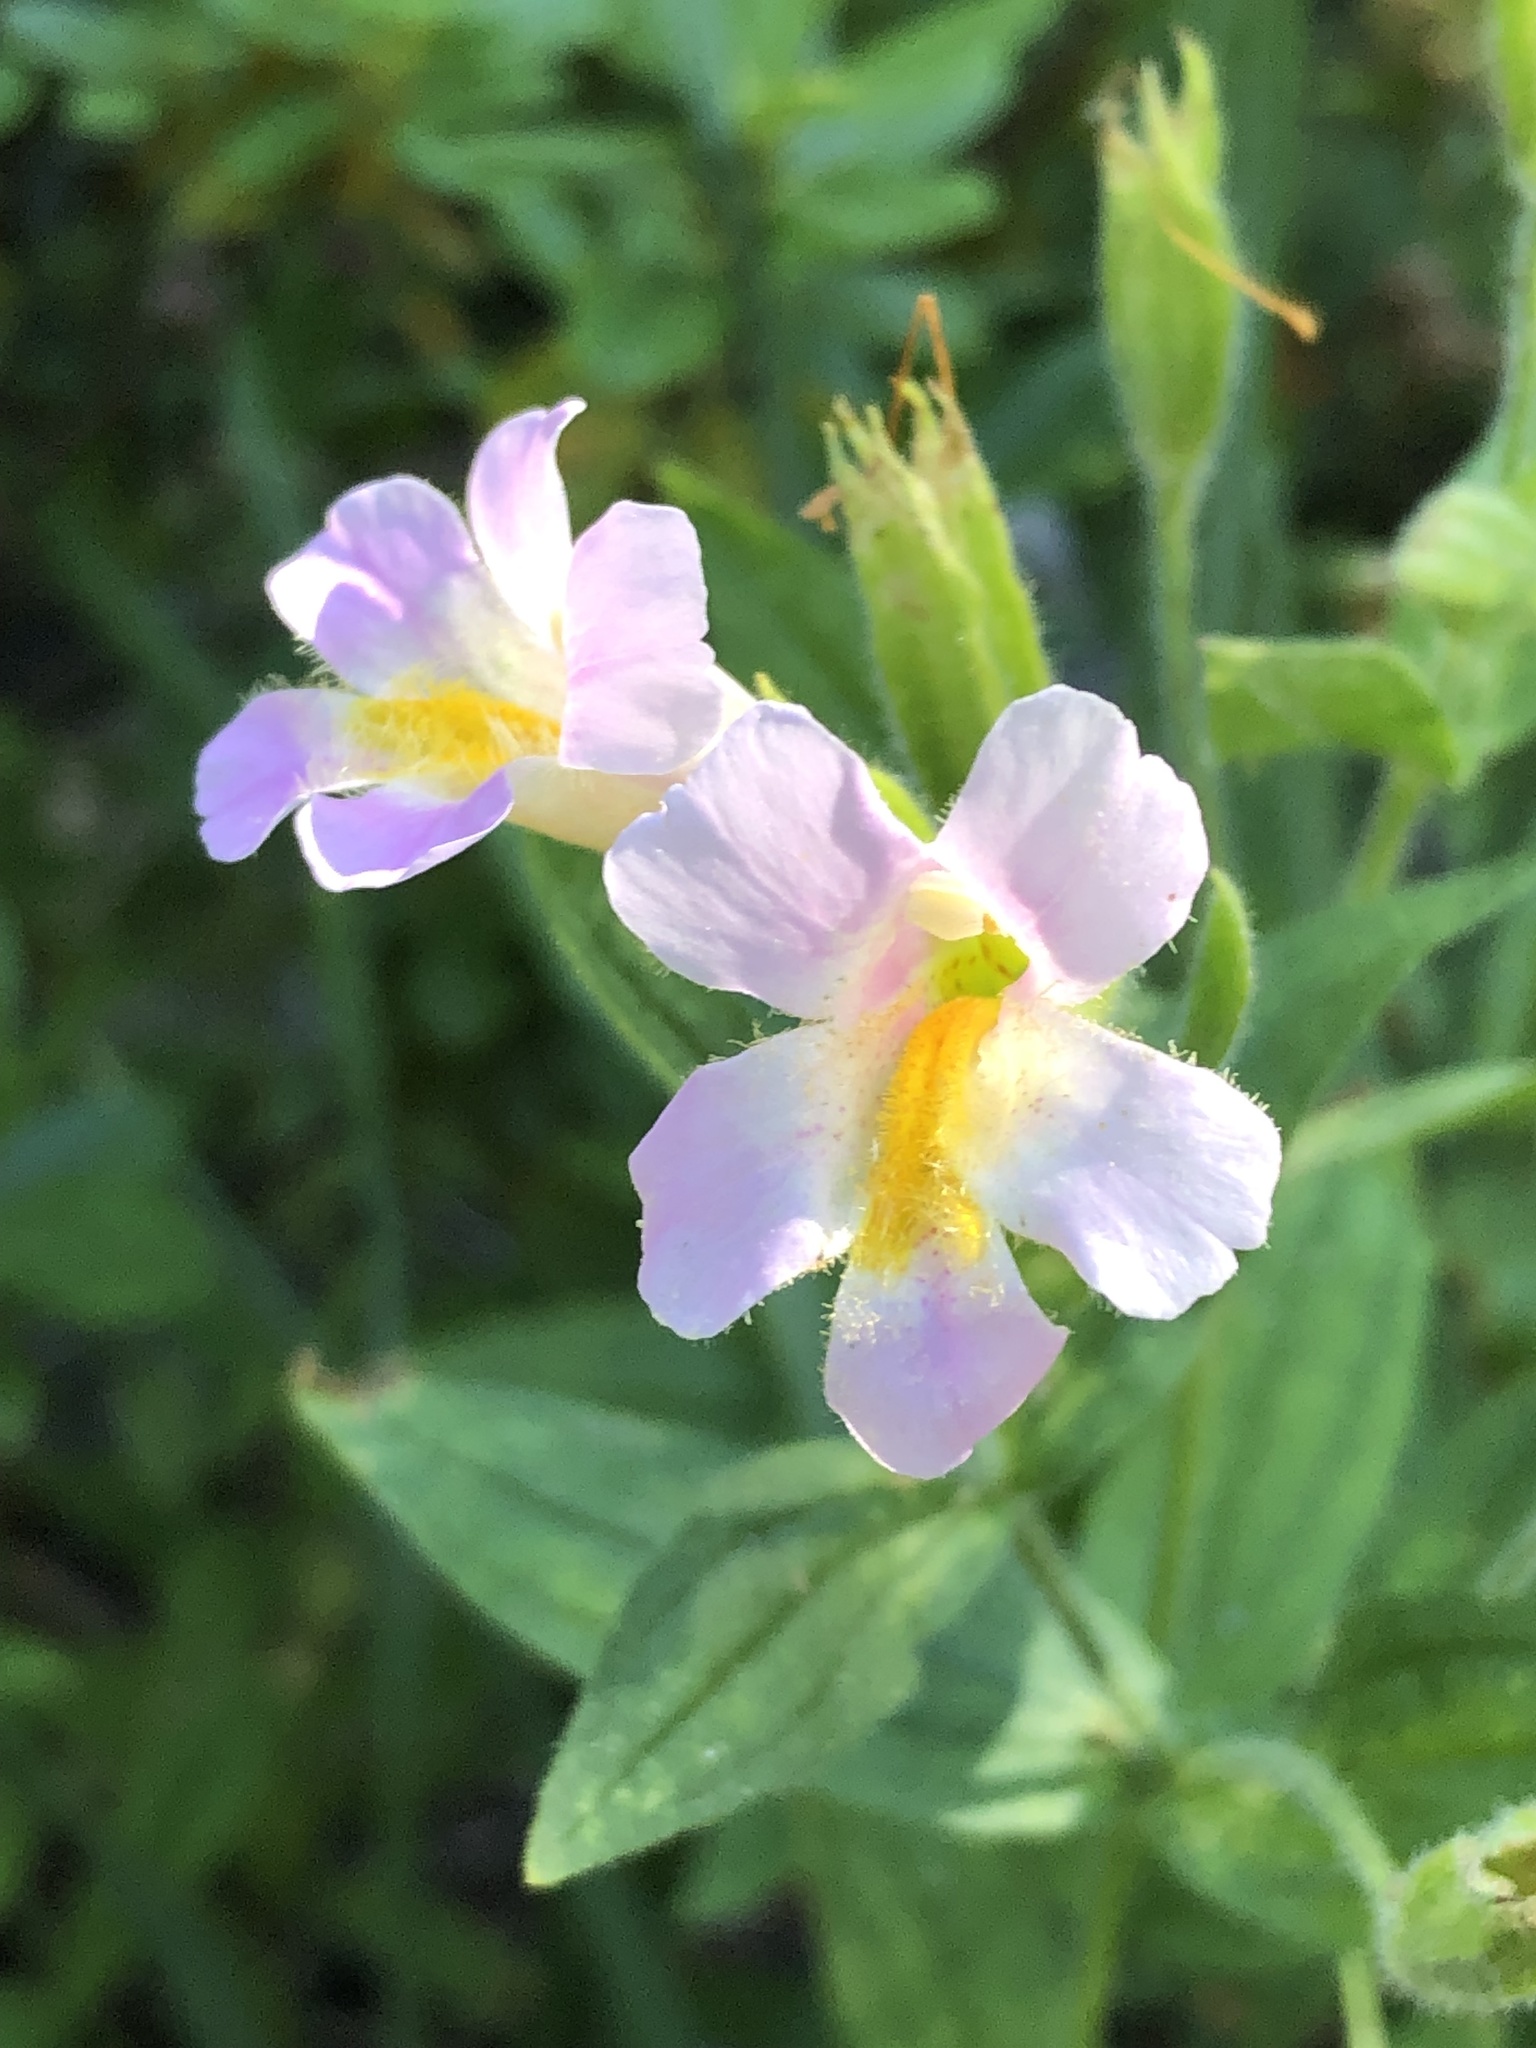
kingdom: Plantae
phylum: Tracheophyta
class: Magnoliopsida
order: Lamiales
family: Phrymaceae
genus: Erythranthe
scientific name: Erythranthe erubescens
